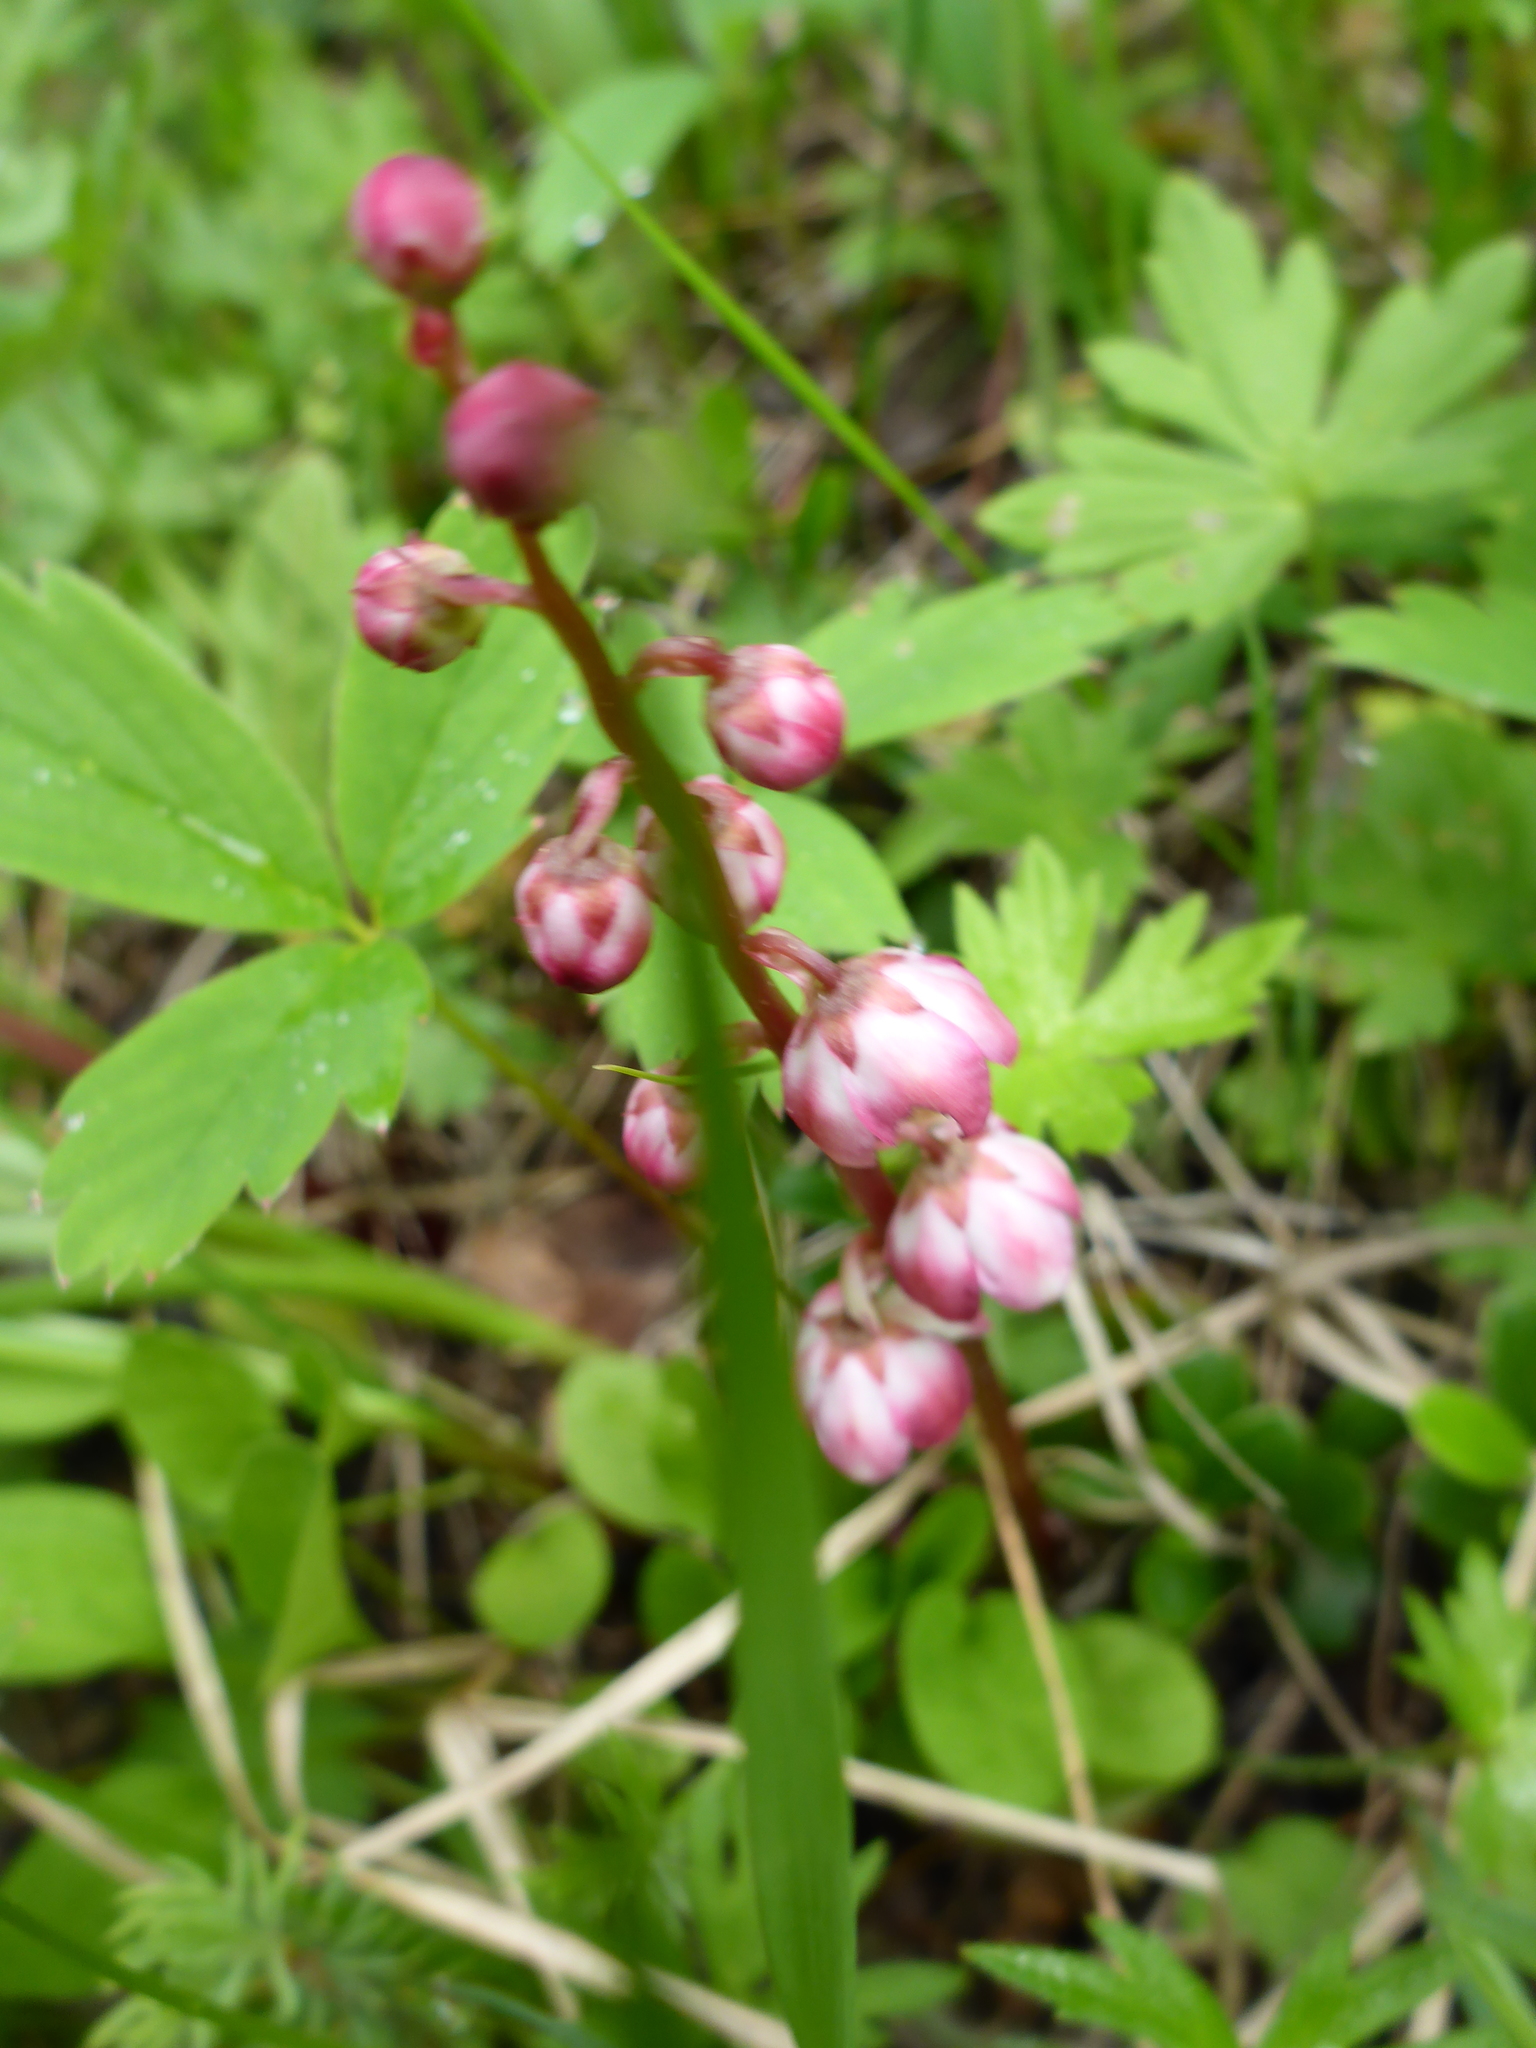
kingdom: Plantae
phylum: Tracheophyta
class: Magnoliopsida
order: Ericales
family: Ericaceae
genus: Pyrola
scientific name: Pyrola asarifolia
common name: Bog wintergreen
